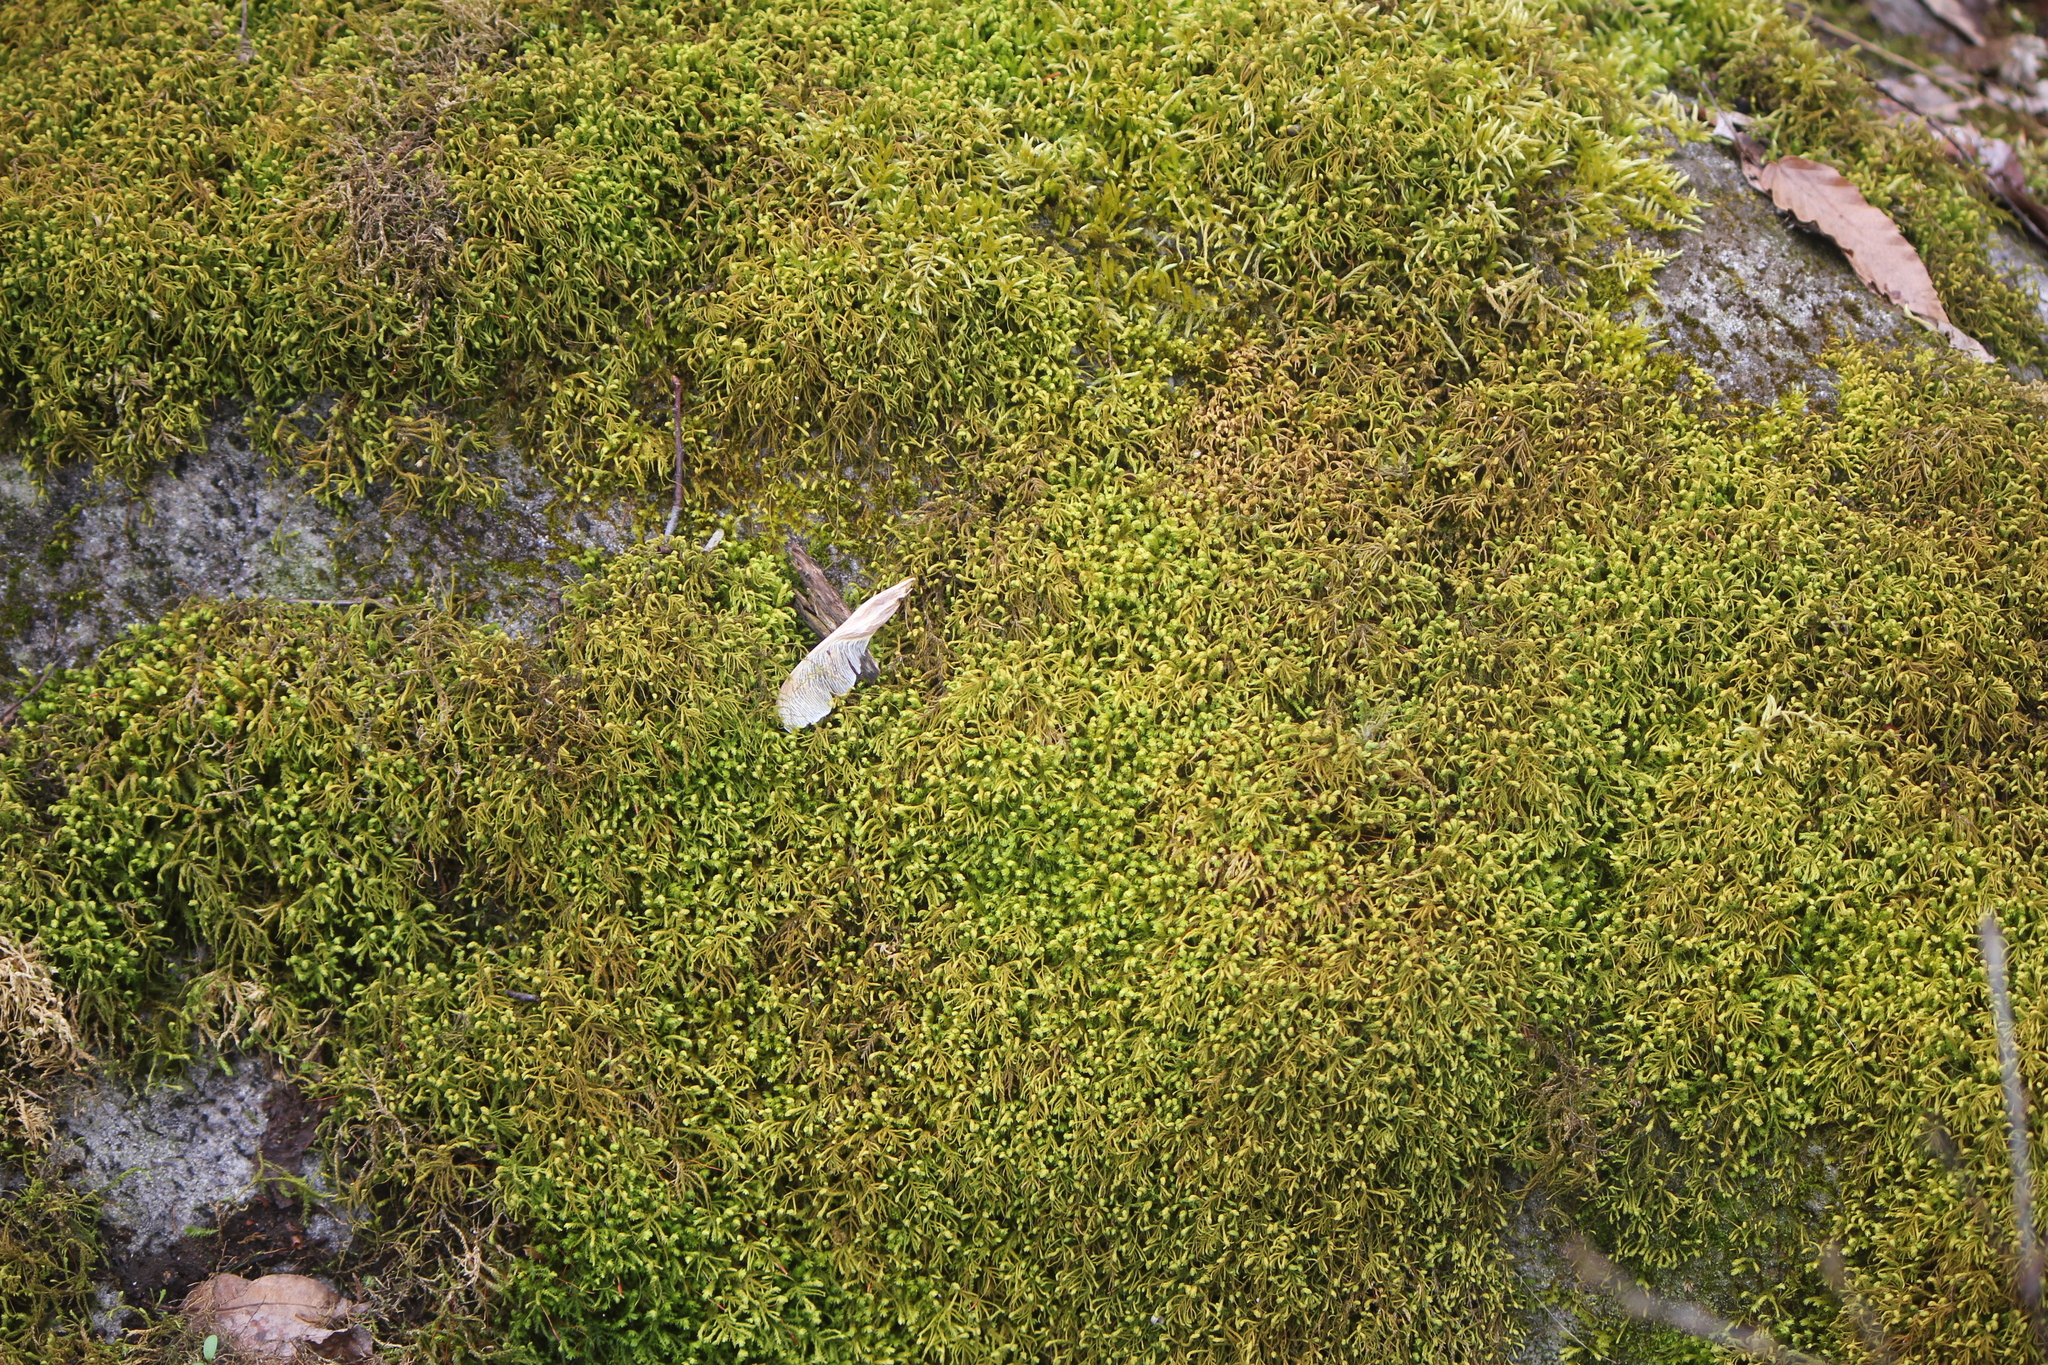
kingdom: Plantae
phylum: Bryophyta
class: Bryopsida
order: Hypnales
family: Neckeraceae
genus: Pseudanomodon
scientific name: Pseudanomodon attenuatus
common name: Tree-skirt moss
